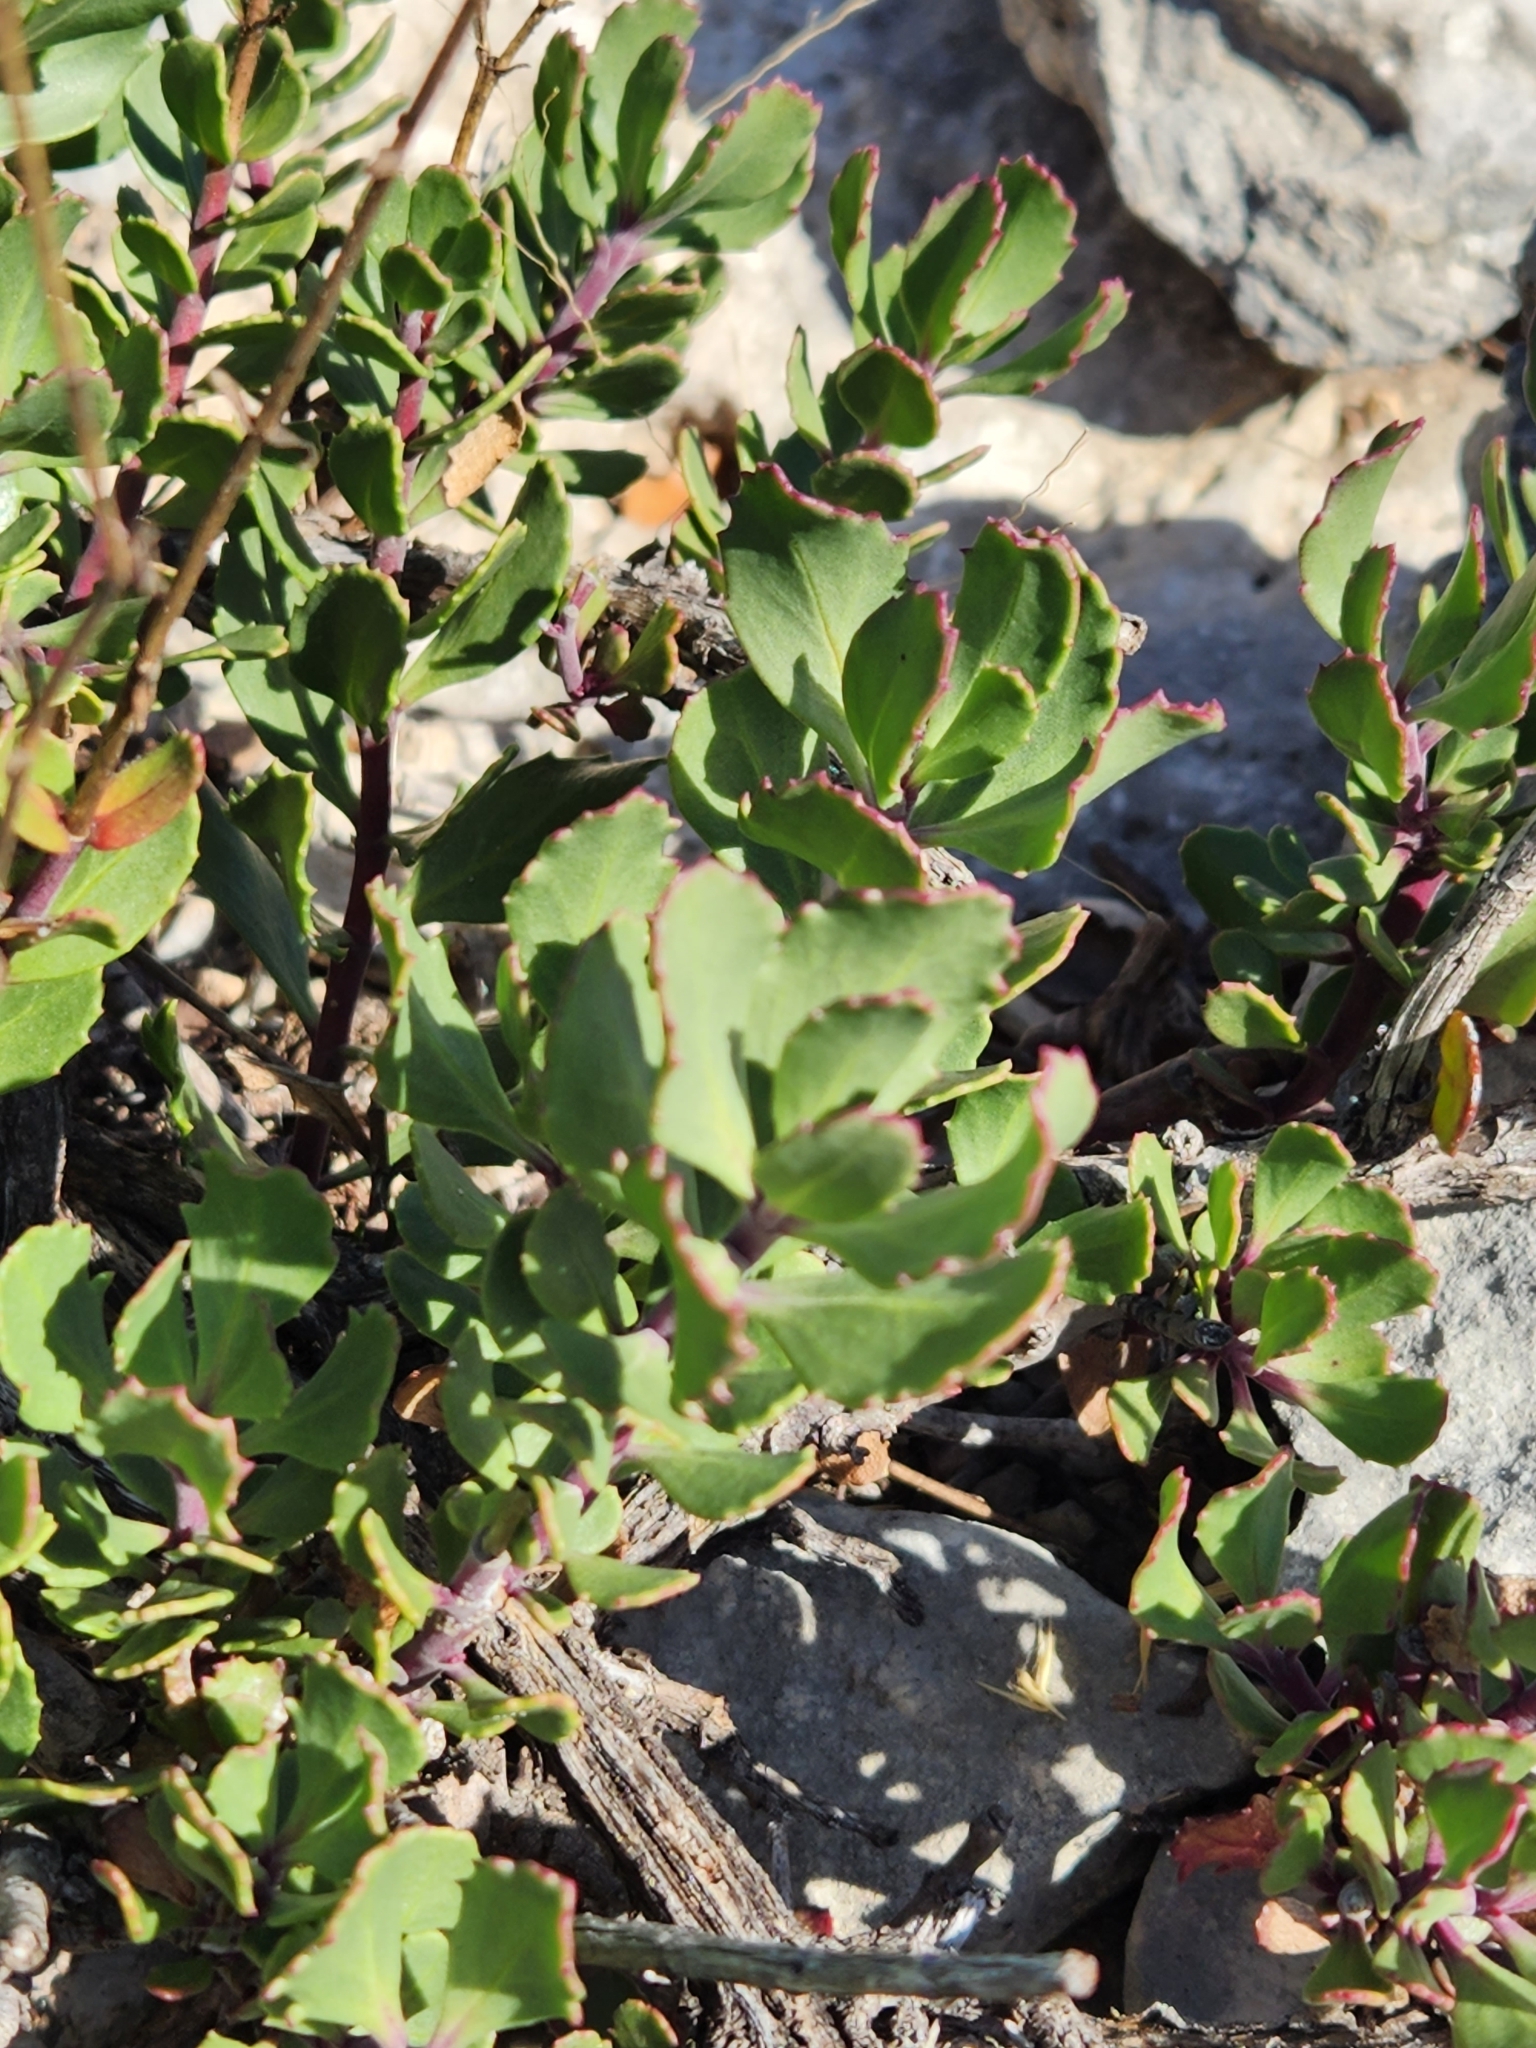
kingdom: Plantae
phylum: Tracheophyta
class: Magnoliopsida
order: Lamiales
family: Plantaginaceae
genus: Penstemon
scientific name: Penstemon baccharifolius
